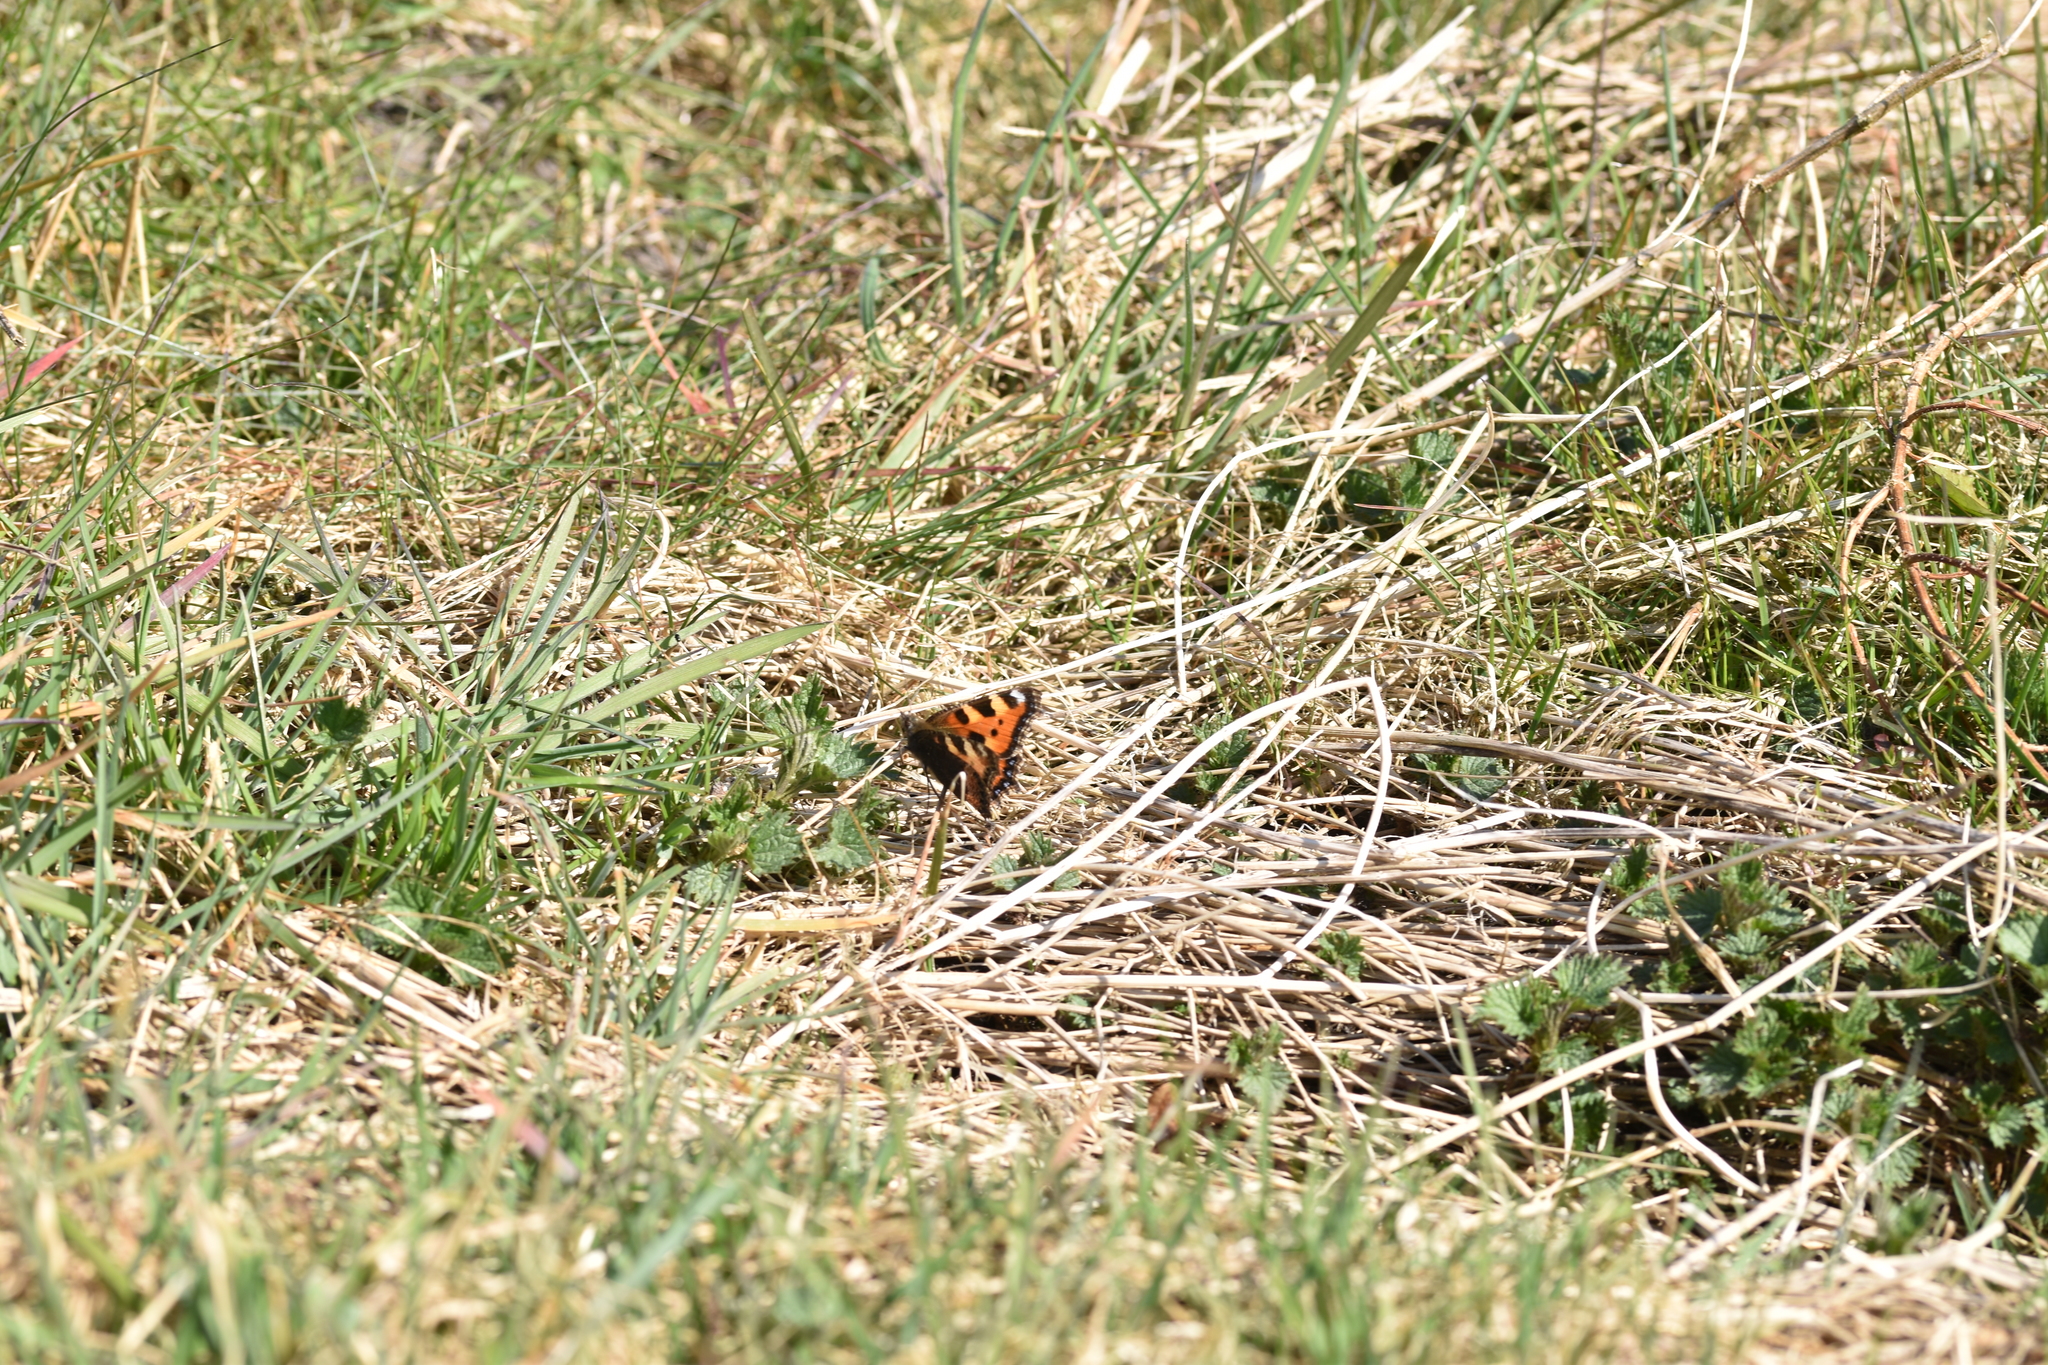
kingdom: Animalia
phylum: Arthropoda
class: Insecta
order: Lepidoptera
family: Nymphalidae
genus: Aglais
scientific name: Aglais urticae
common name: Small tortoiseshell
